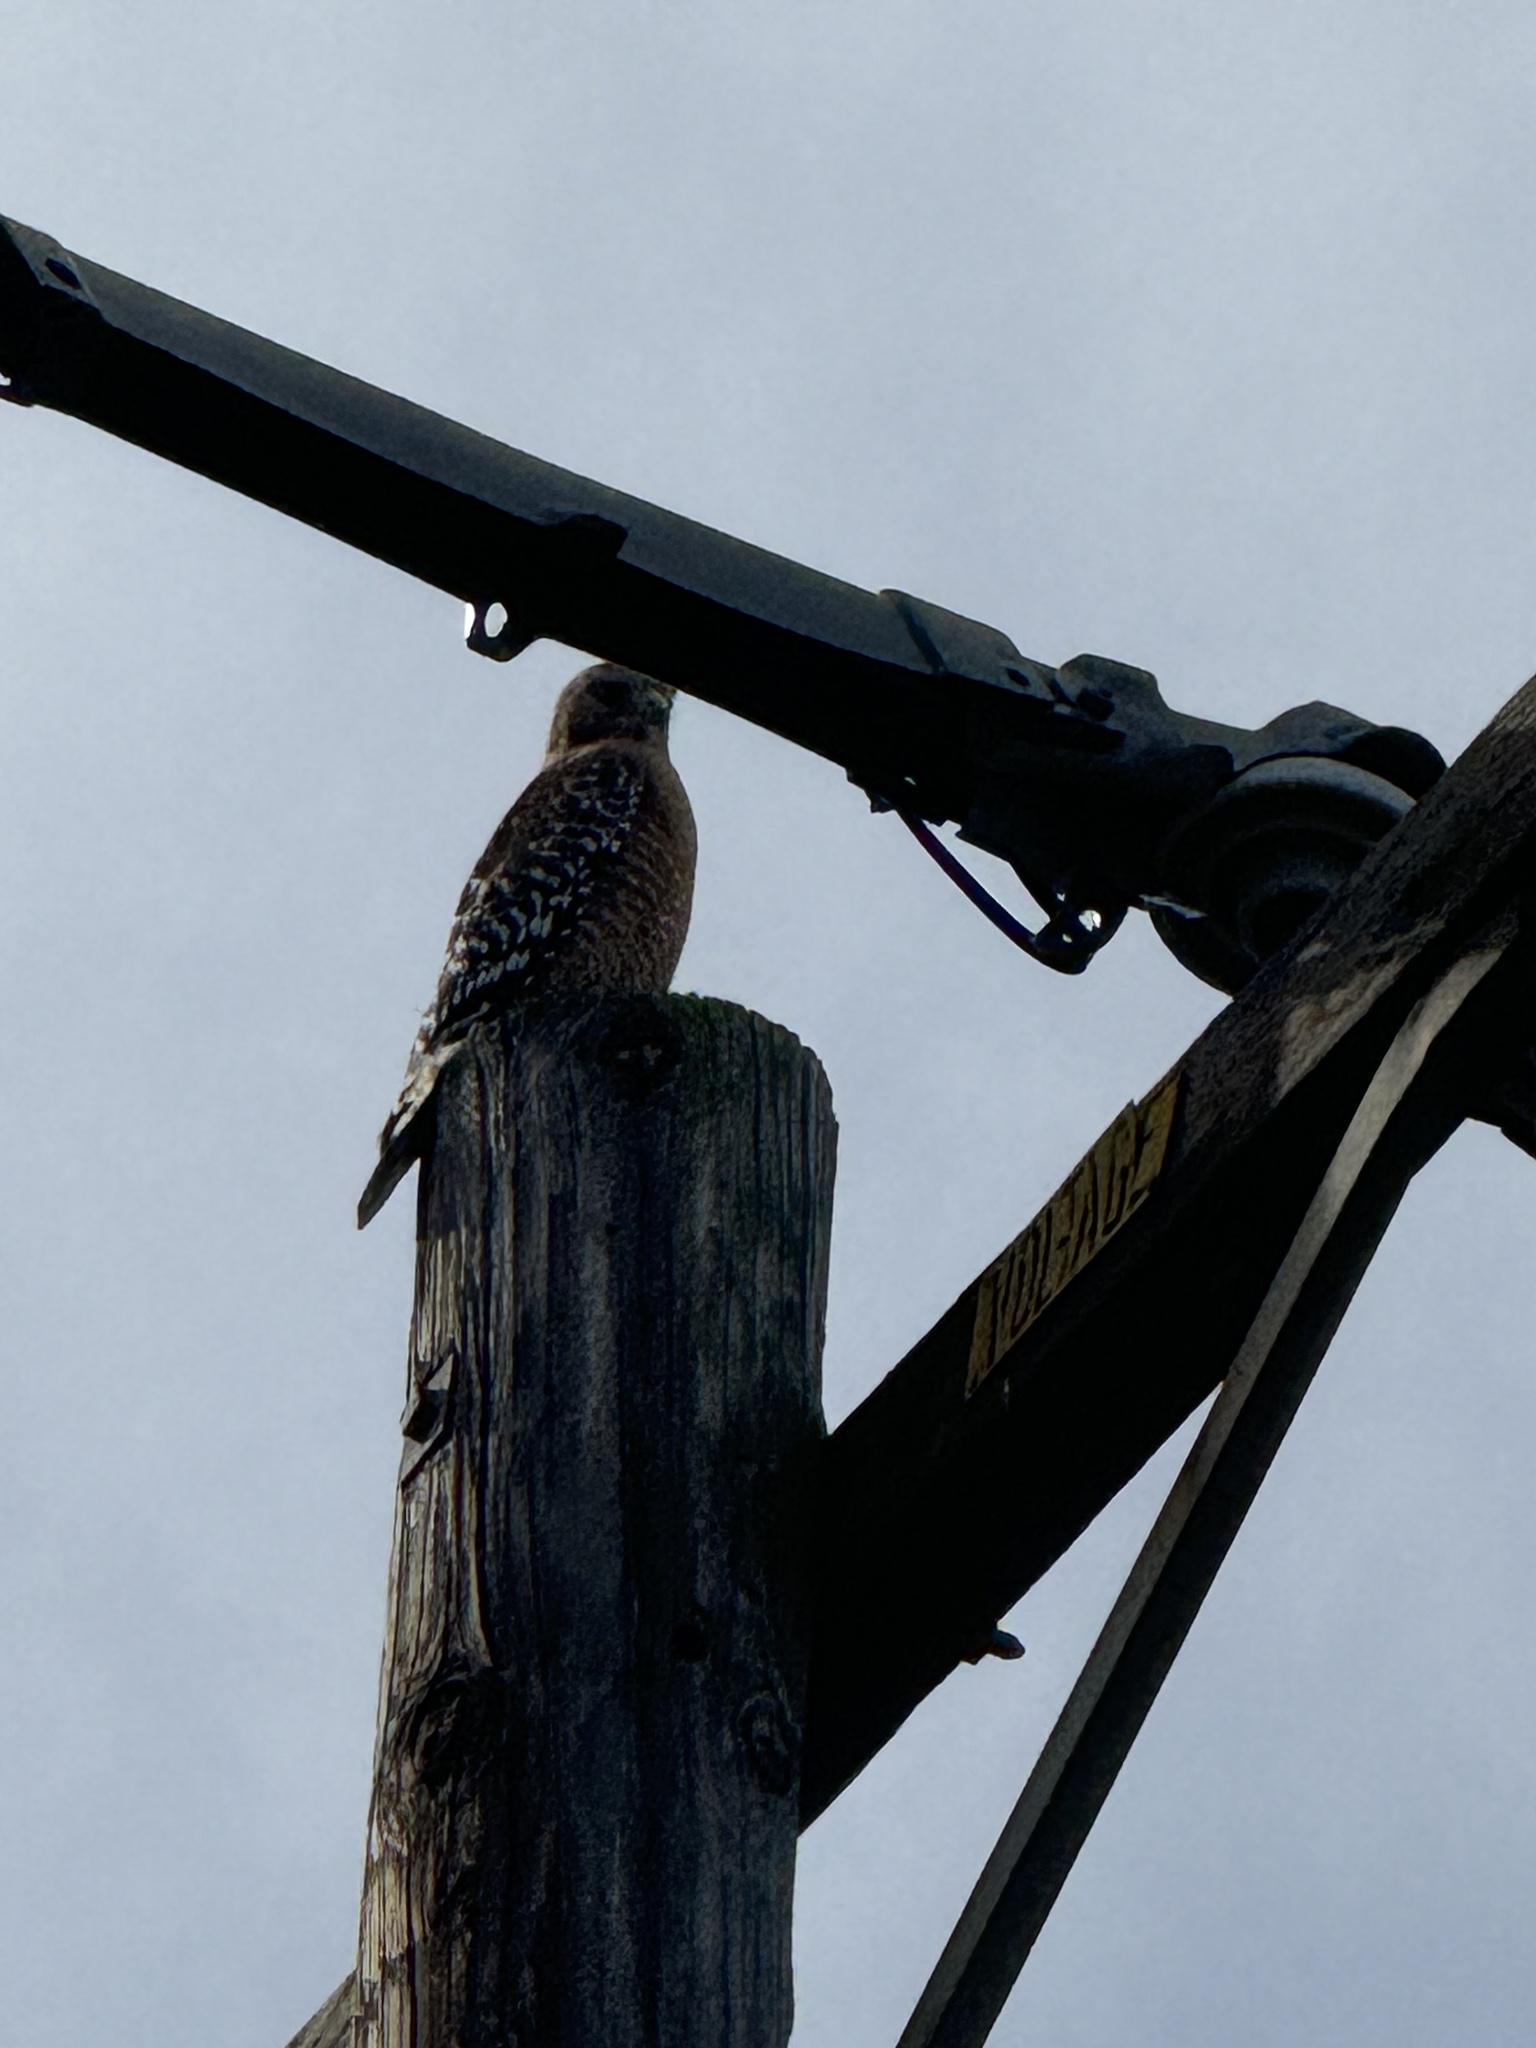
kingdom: Animalia
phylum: Chordata
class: Aves
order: Accipitriformes
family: Accipitridae
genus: Buteo
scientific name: Buteo lineatus
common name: Red-shouldered hawk
